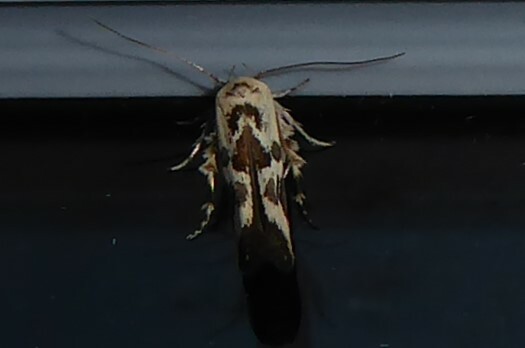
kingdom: Animalia
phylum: Arthropoda
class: Insecta
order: Lepidoptera
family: Stathmopodidae
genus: Stathmopoda
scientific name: Stathmopoda melanochra
